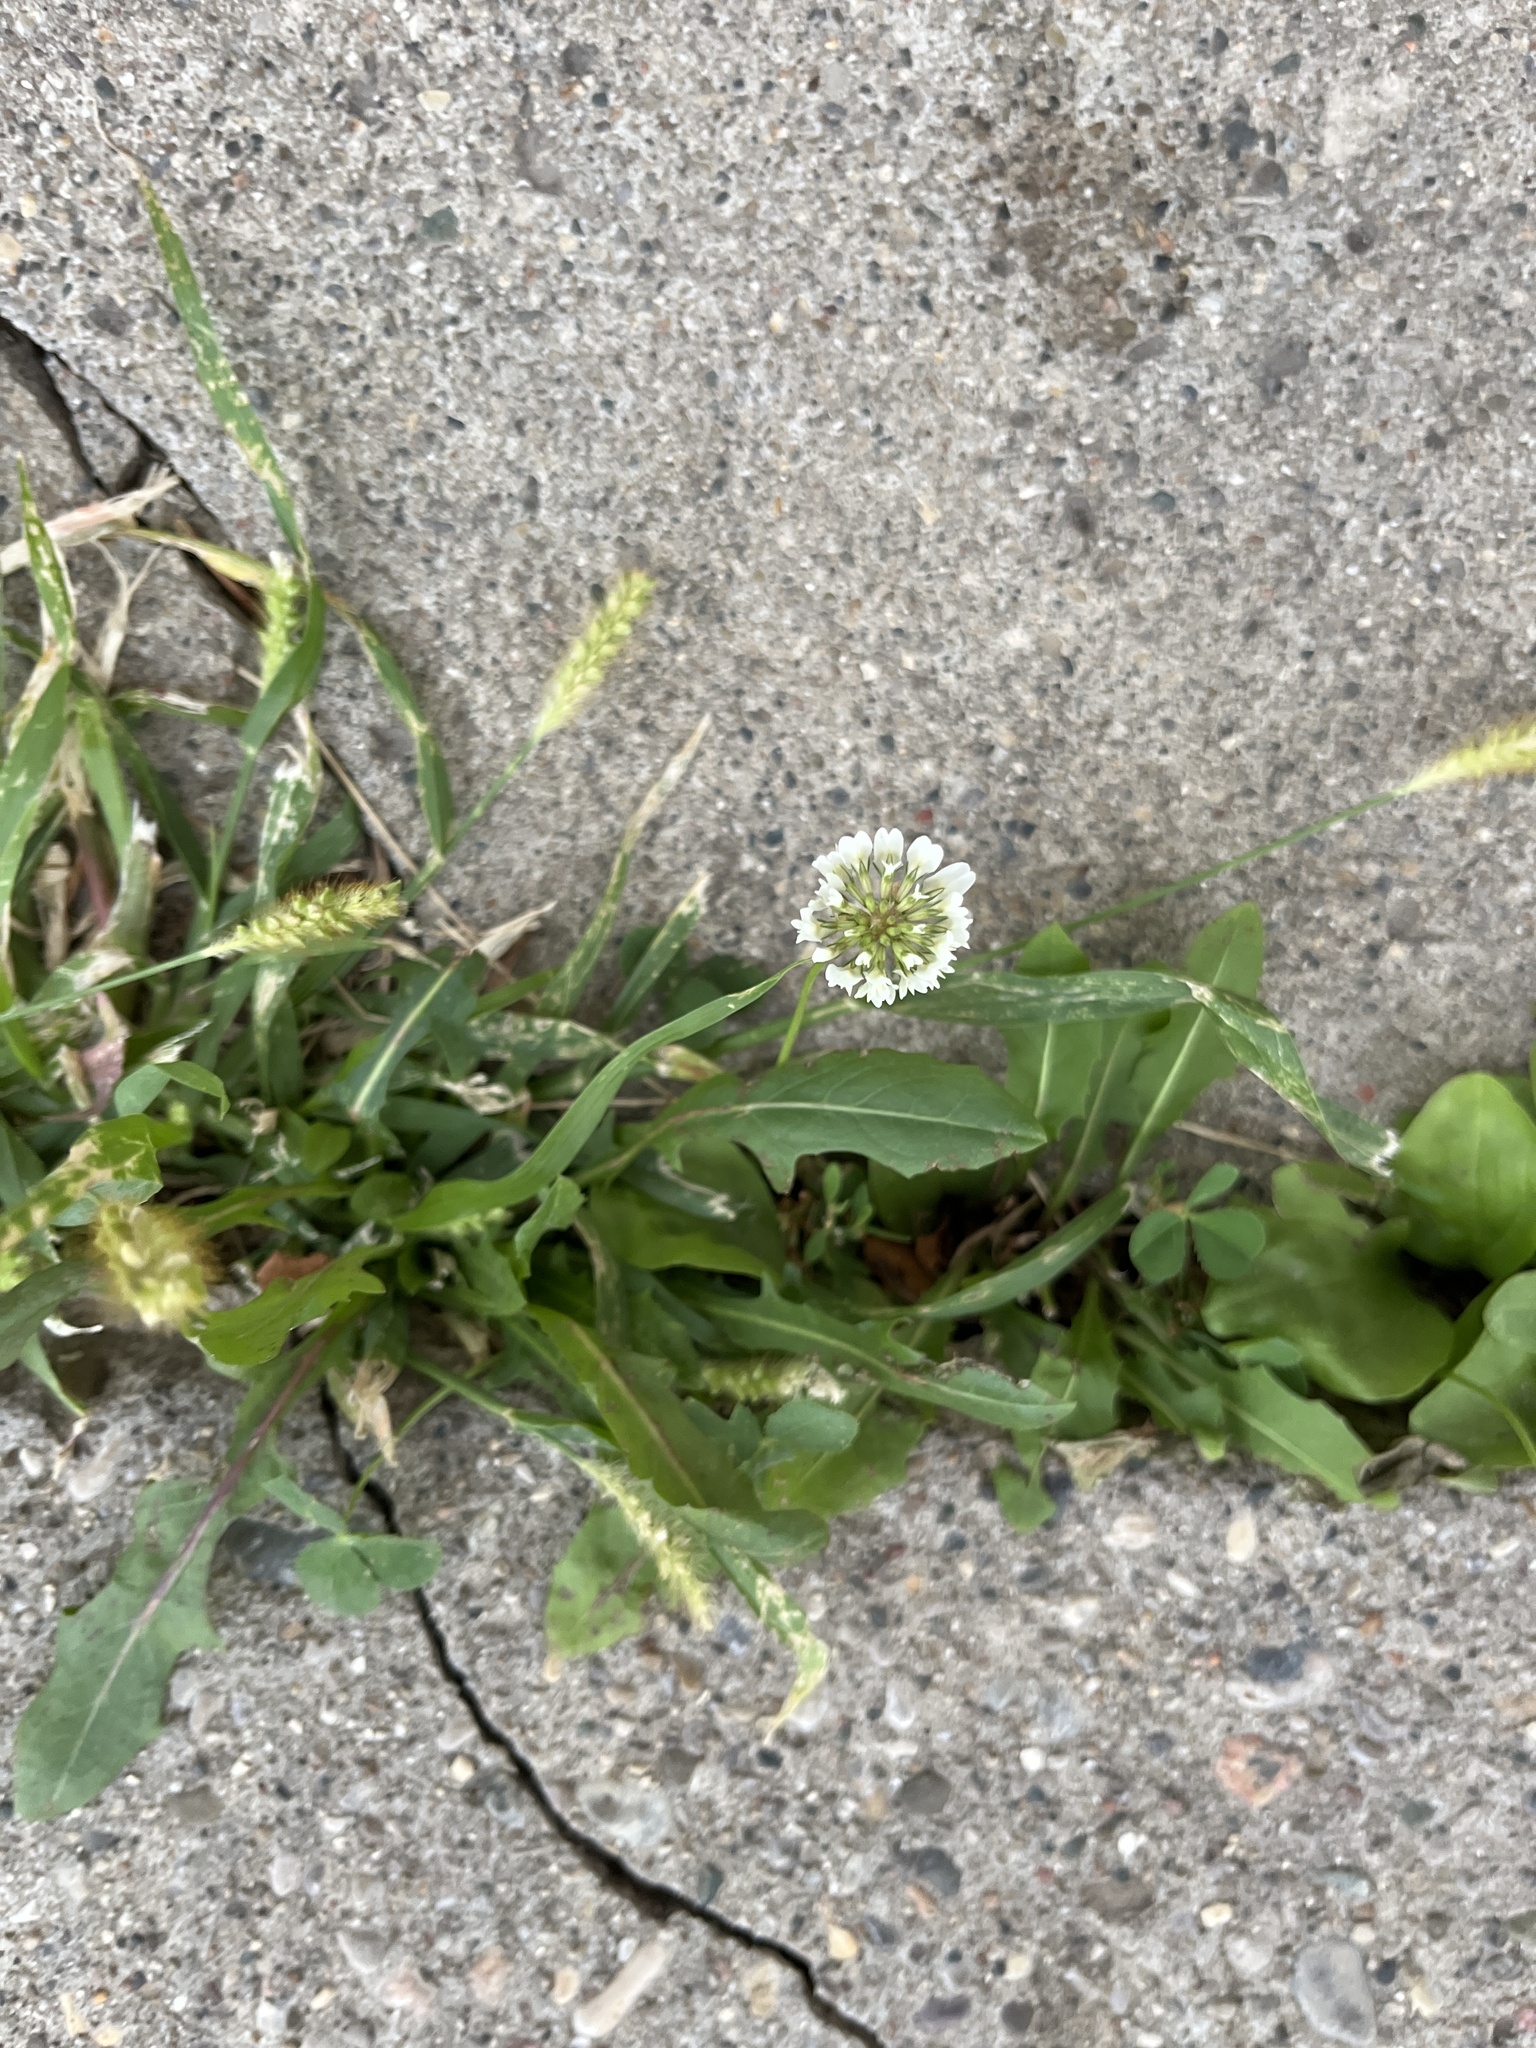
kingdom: Plantae
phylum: Tracheophyta
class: Magnoliopsida
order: Fabales
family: Fabaceae
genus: Trifolium
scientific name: Trifolium repens
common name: White clover
